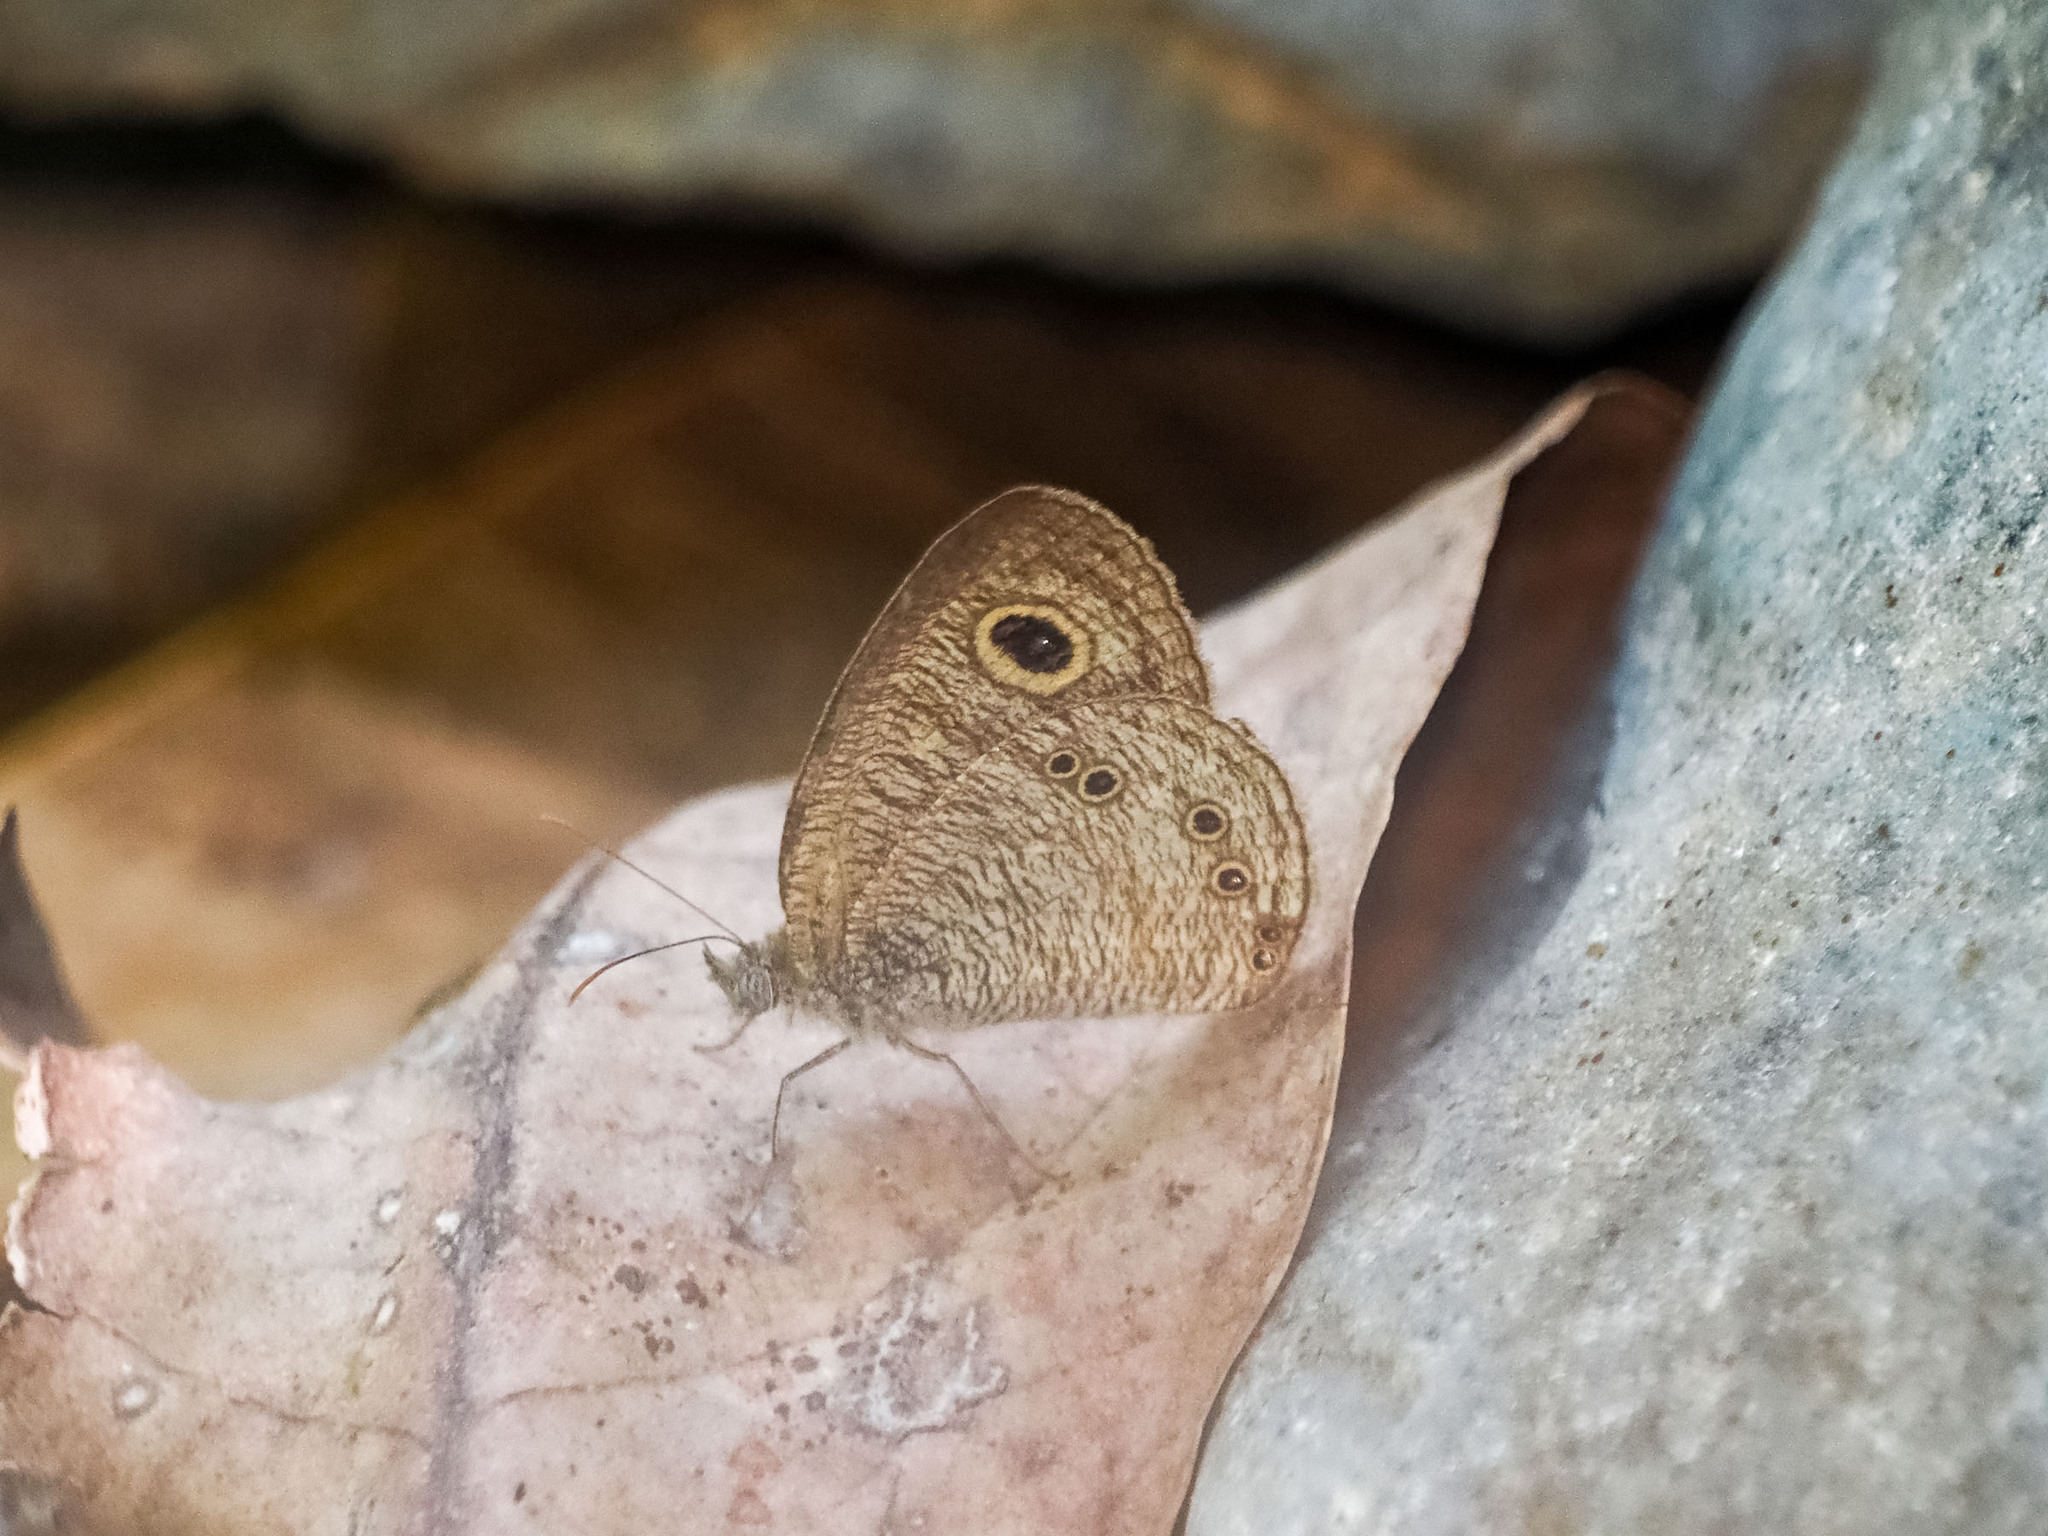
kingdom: Animalia
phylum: Arthropoda
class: Insecta
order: Lepidoptera
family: Nymphalidae
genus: Ypthima
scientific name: Ypthima nigricans
